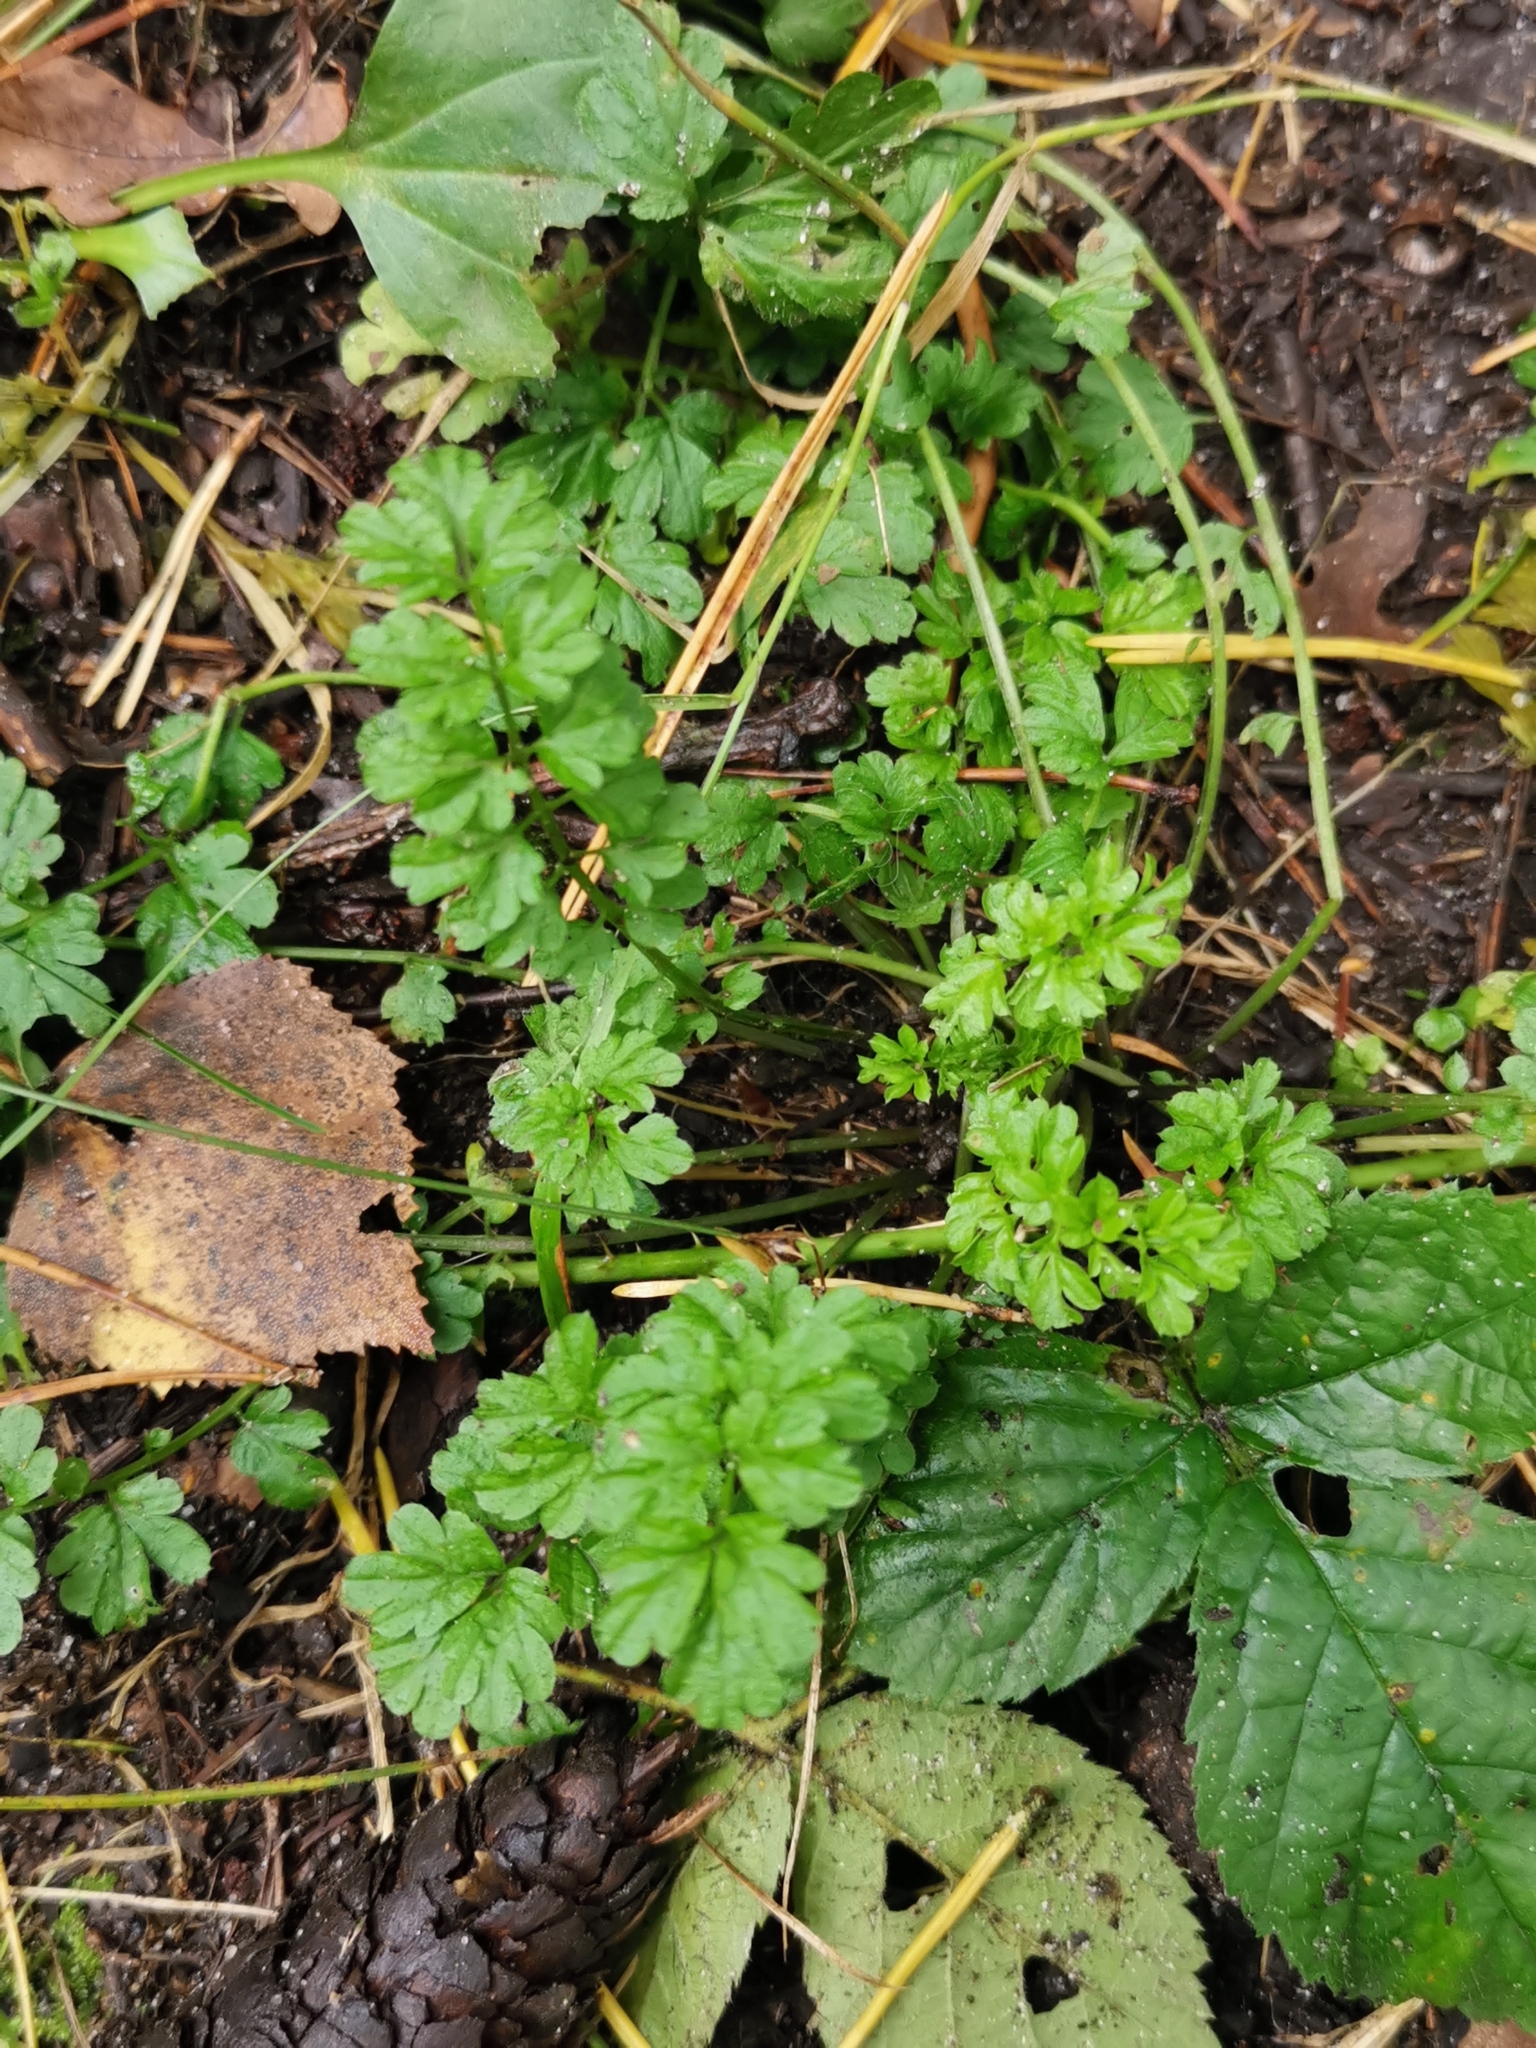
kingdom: Plantae
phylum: Tracheophyta
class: Magnoliopsida
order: Brassicales
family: Brassicaceae
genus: Cardamine
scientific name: Cardamine impatiens
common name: Narrow-leaved bitter-cress
